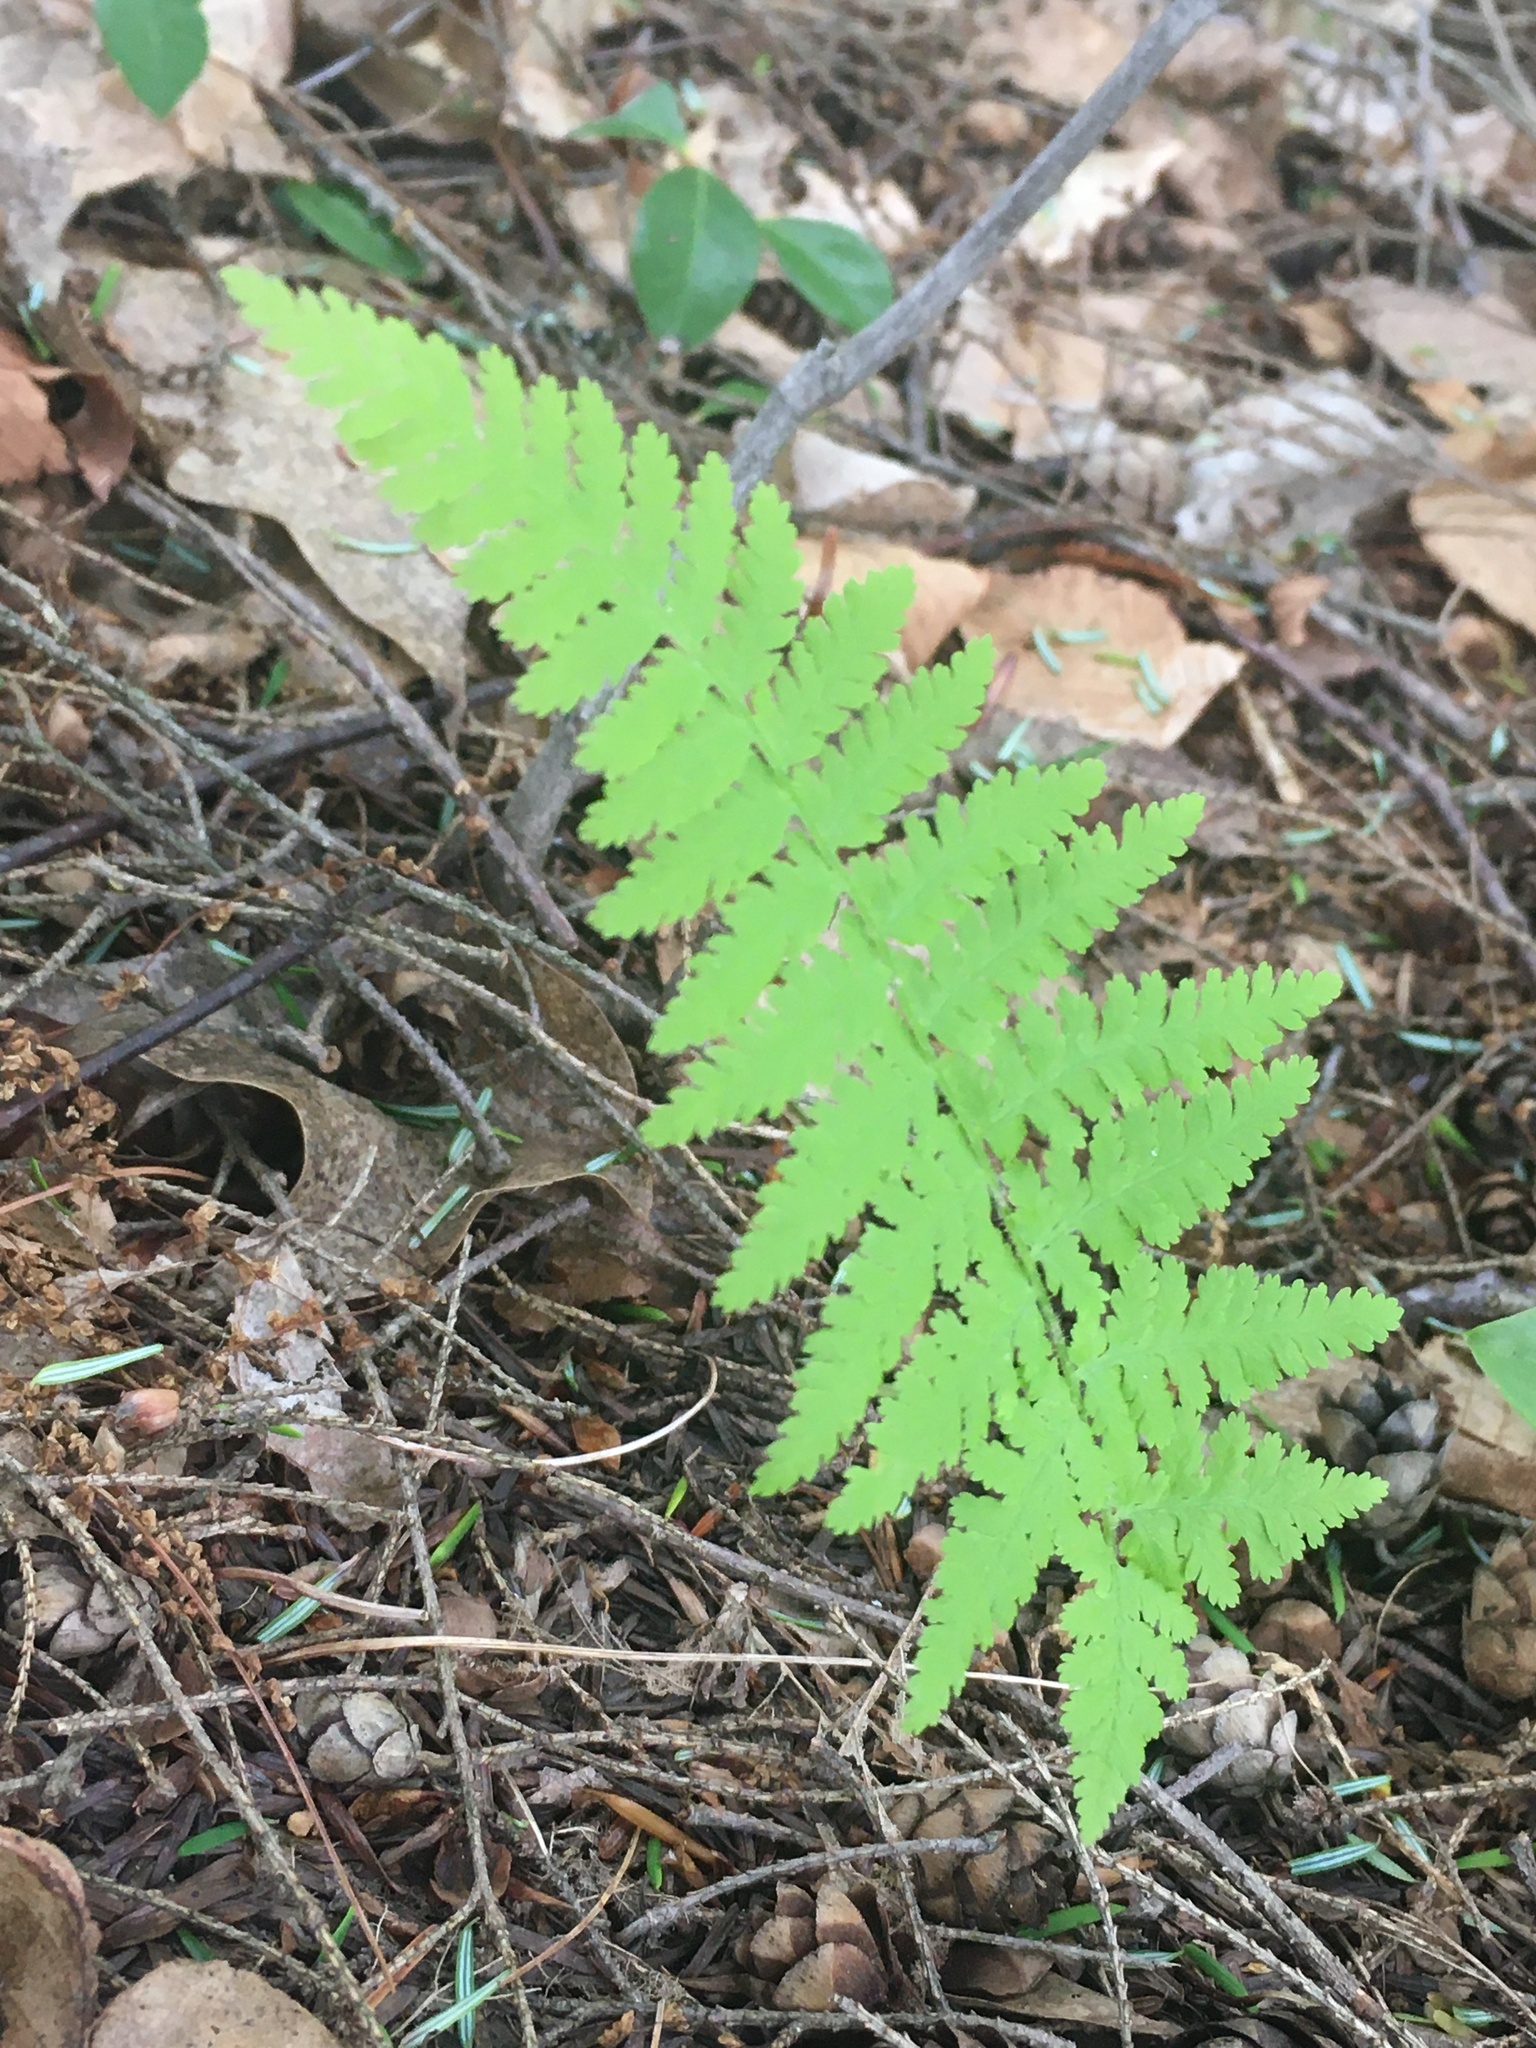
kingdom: Plantae
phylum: Tracheophyta
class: Polypodiopsida
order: Polypodiales
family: Dennstaedtiaceae
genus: Sitobolium
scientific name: Sitobolium punctilobum
